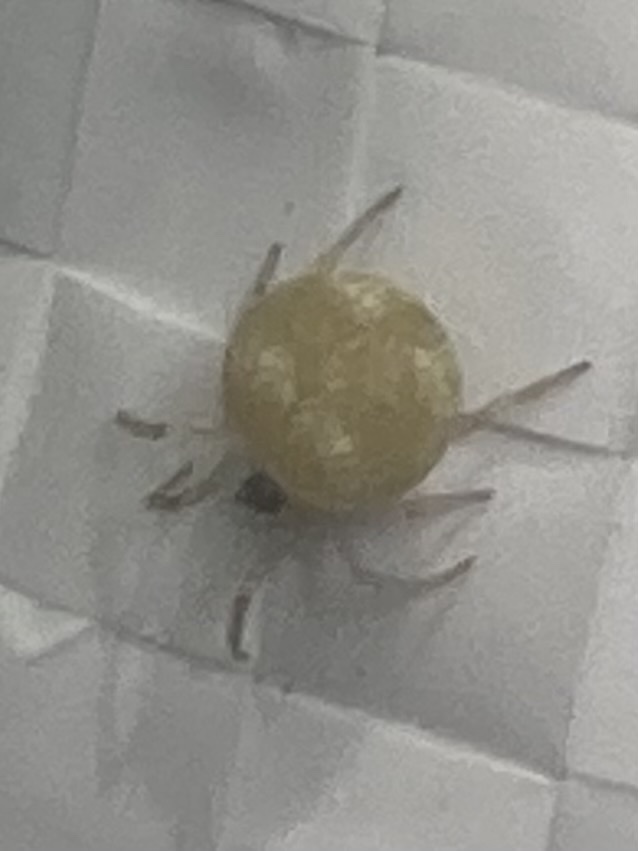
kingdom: Animalia
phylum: Arthropoda
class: Arachnida
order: Araneae
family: Theridiidae
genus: Paidiscura
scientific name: Paidiscura pallens
